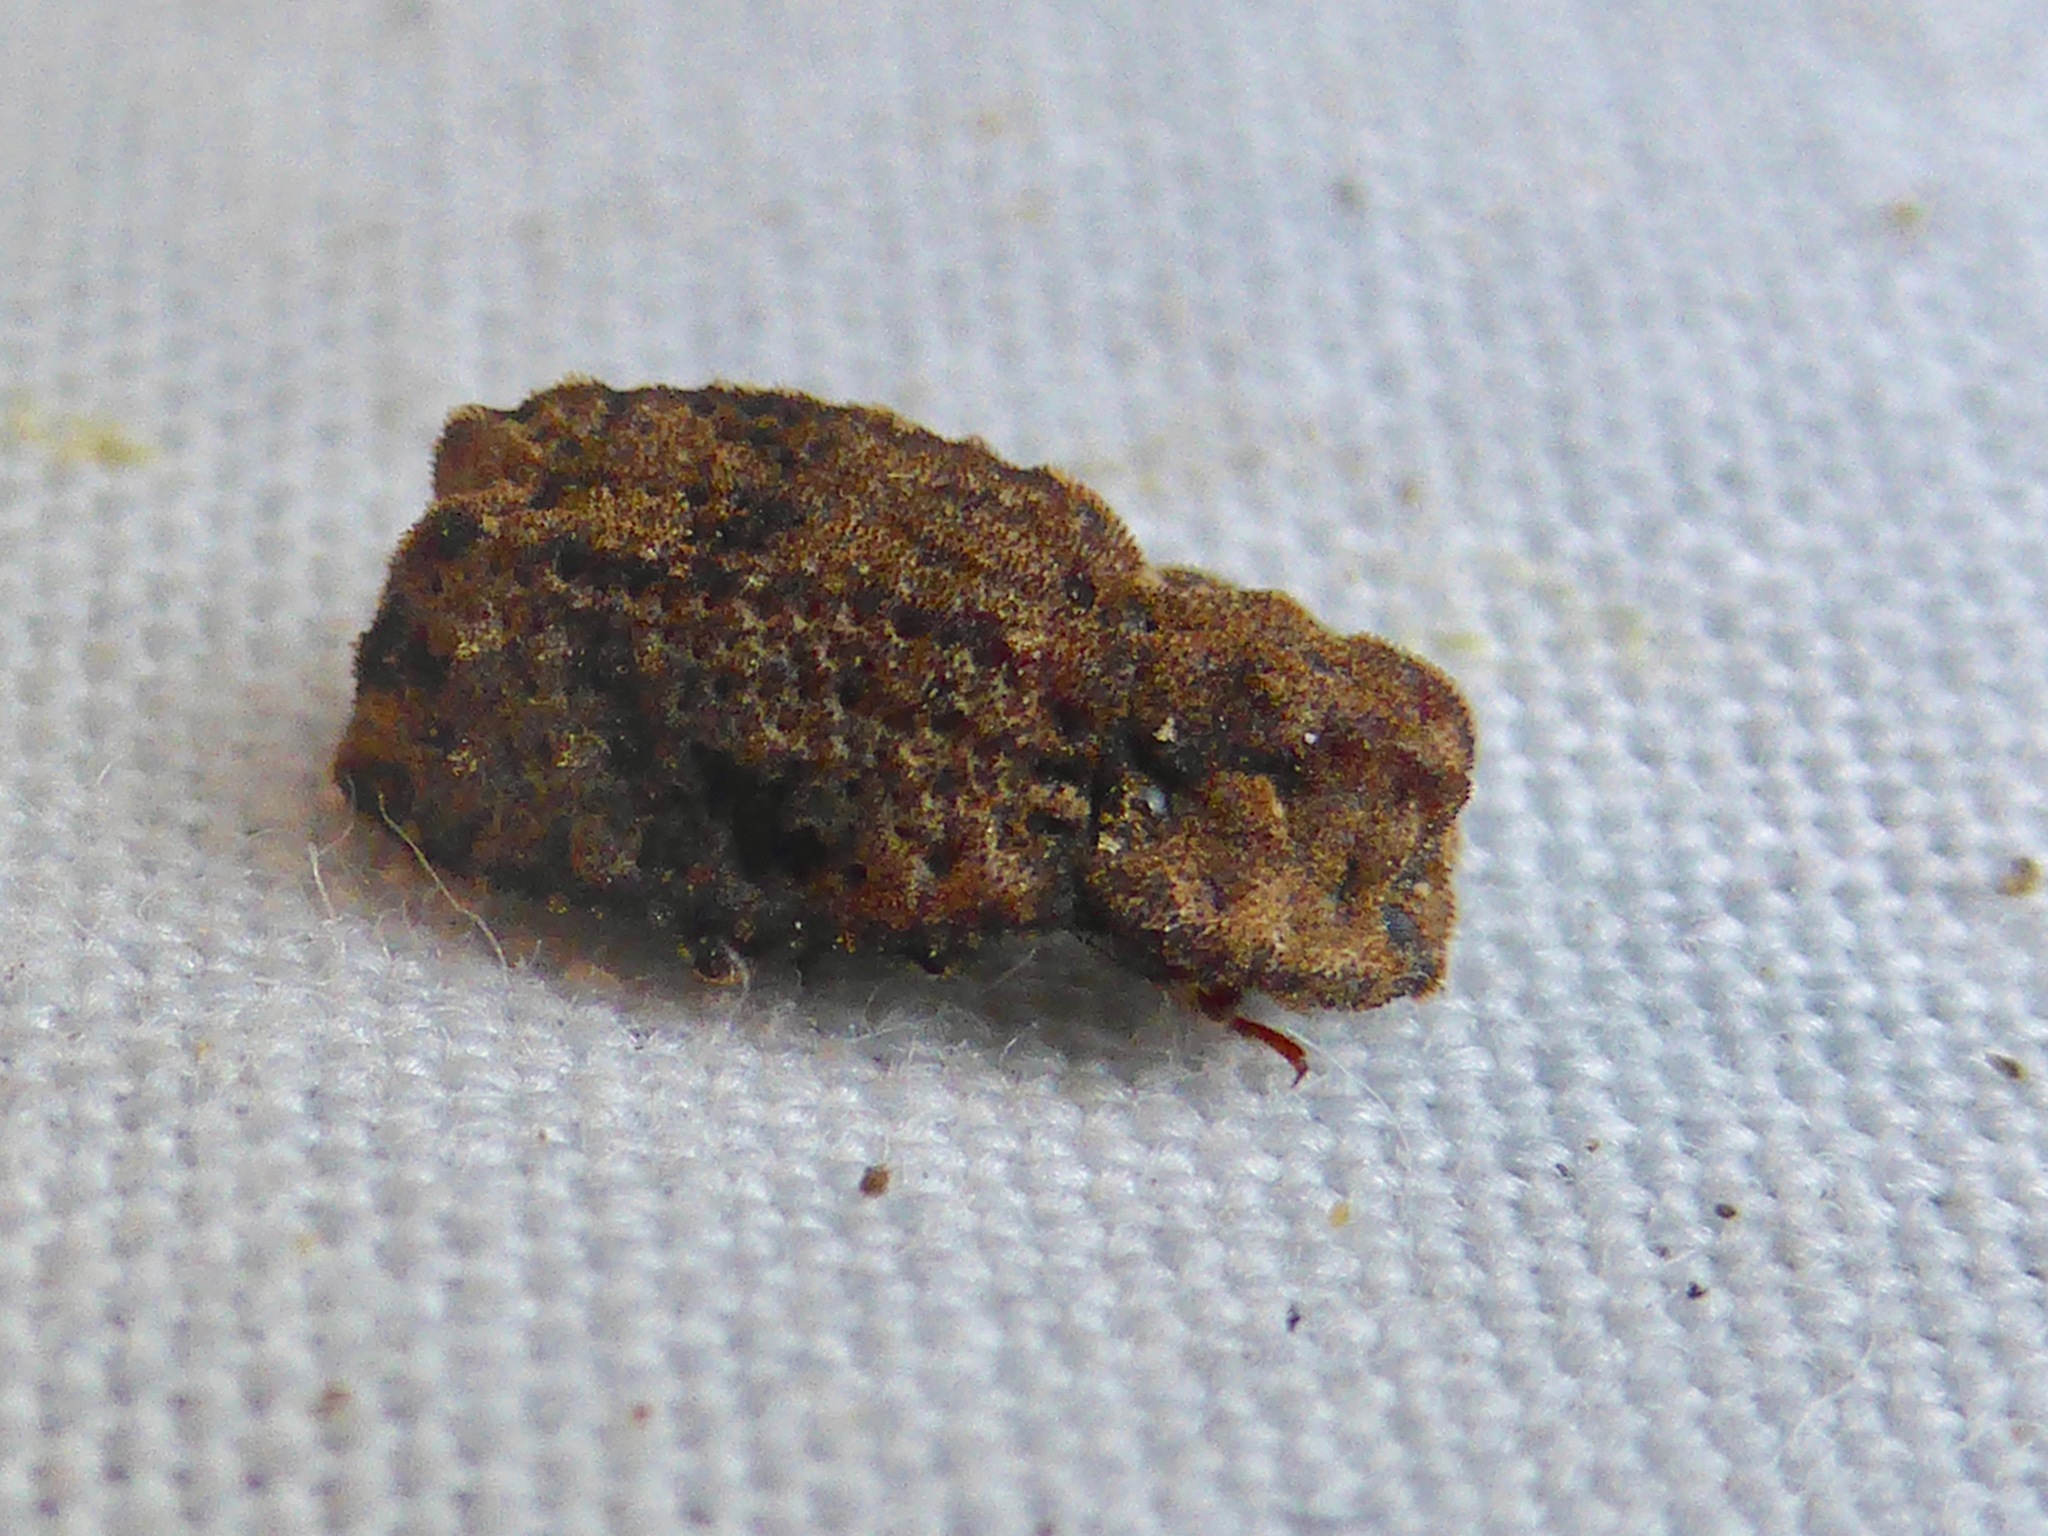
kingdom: Animalia
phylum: Arthropoda
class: Insecta
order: Coleoptera
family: Zopheridae
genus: Pristoderus
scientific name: Pristoderus
